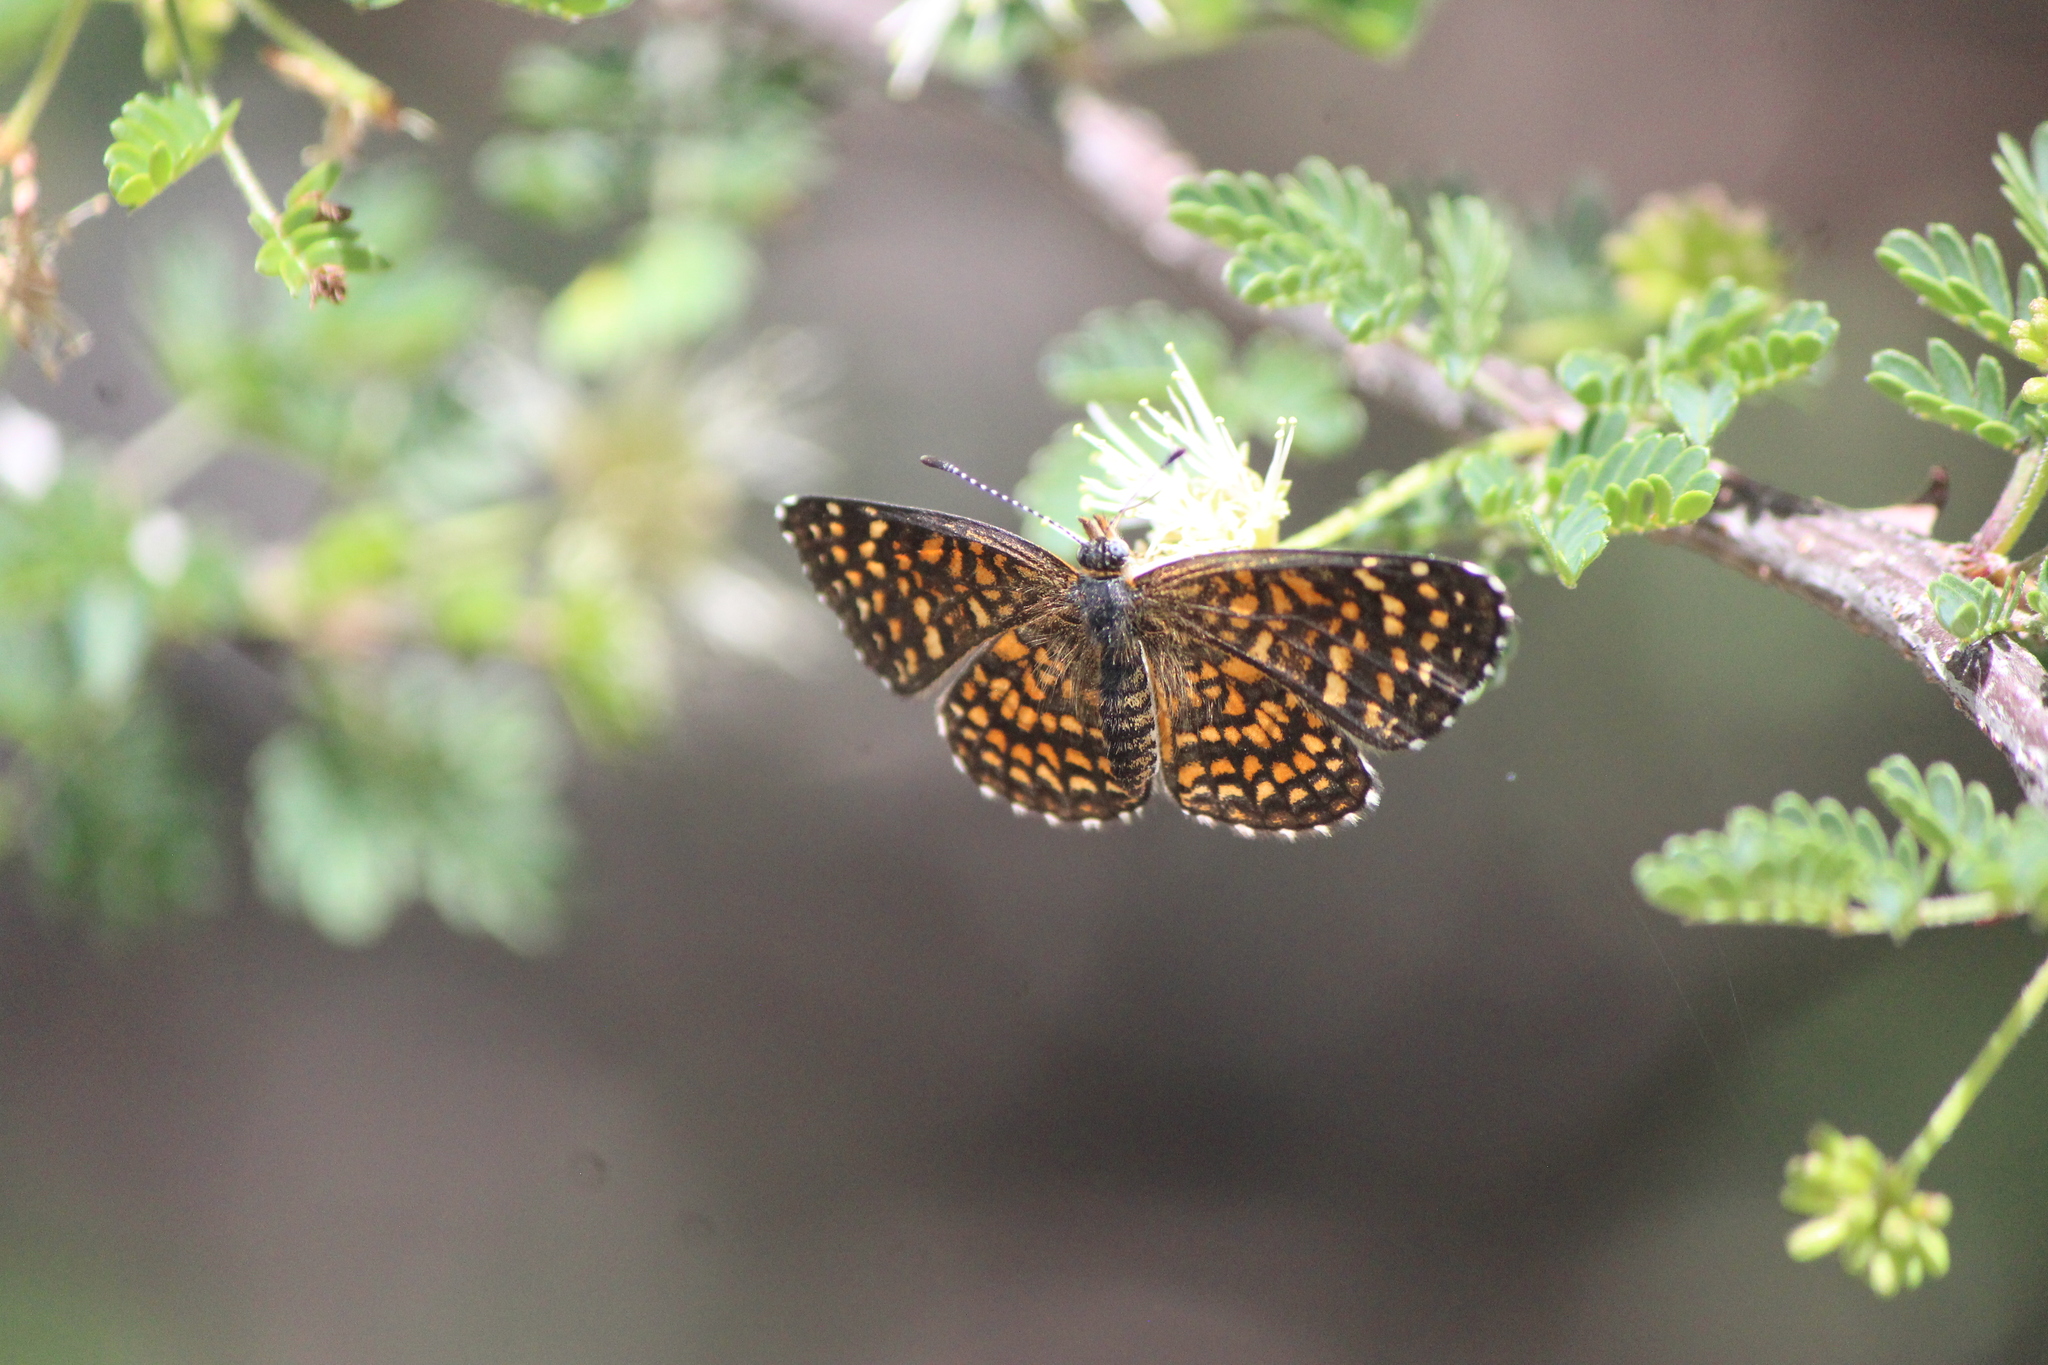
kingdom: Animalia
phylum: Arthropoda
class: Insecta
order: Lepidoptera
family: Nymphalidae
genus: Texola
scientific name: Texola elada
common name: Elada checkerspot
